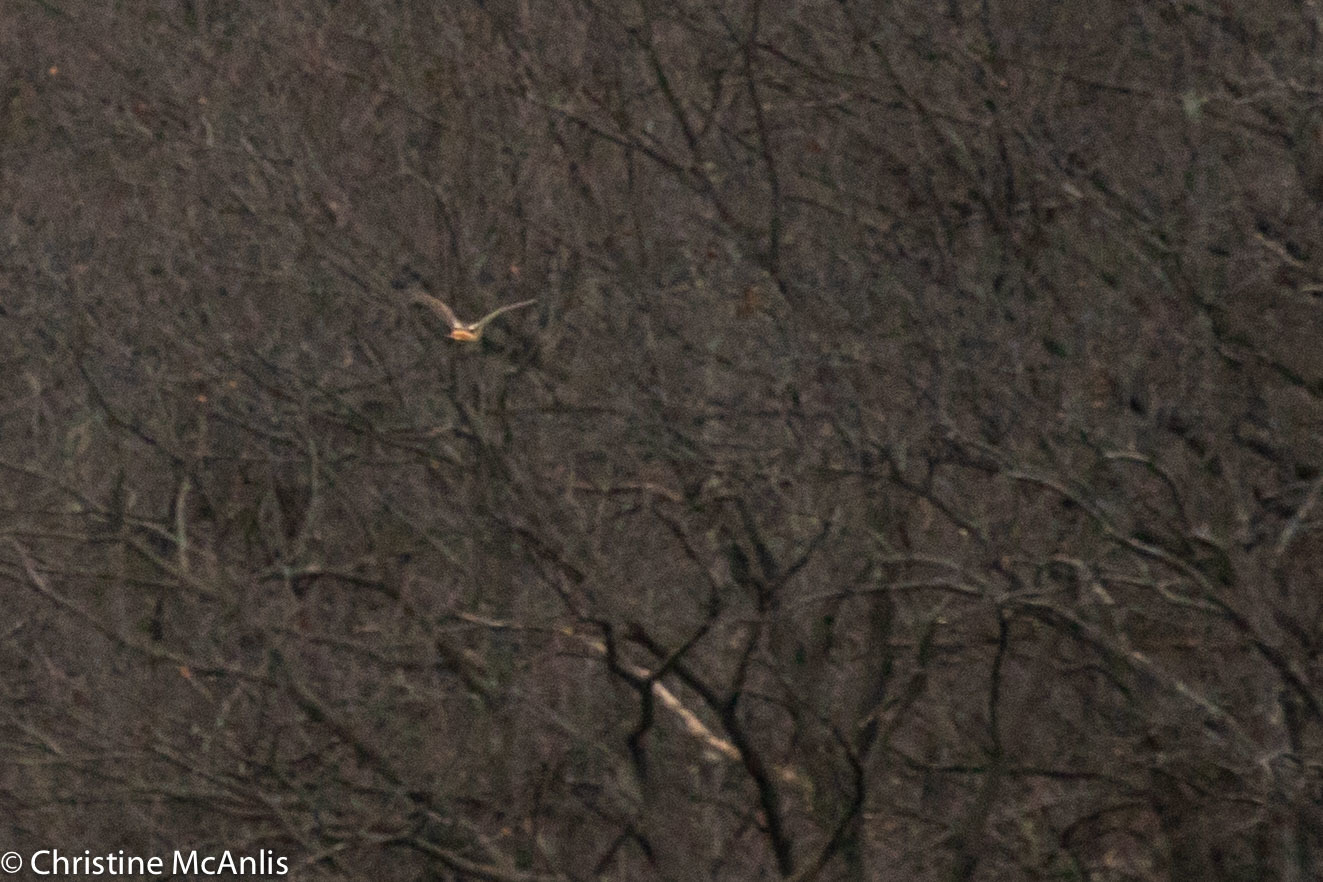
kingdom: Animalia
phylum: Chordata
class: Aves
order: Accipitriformes
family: Accipitridae
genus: Buteo
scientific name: Buteo jamaicensis
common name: Red-tailed hawk
